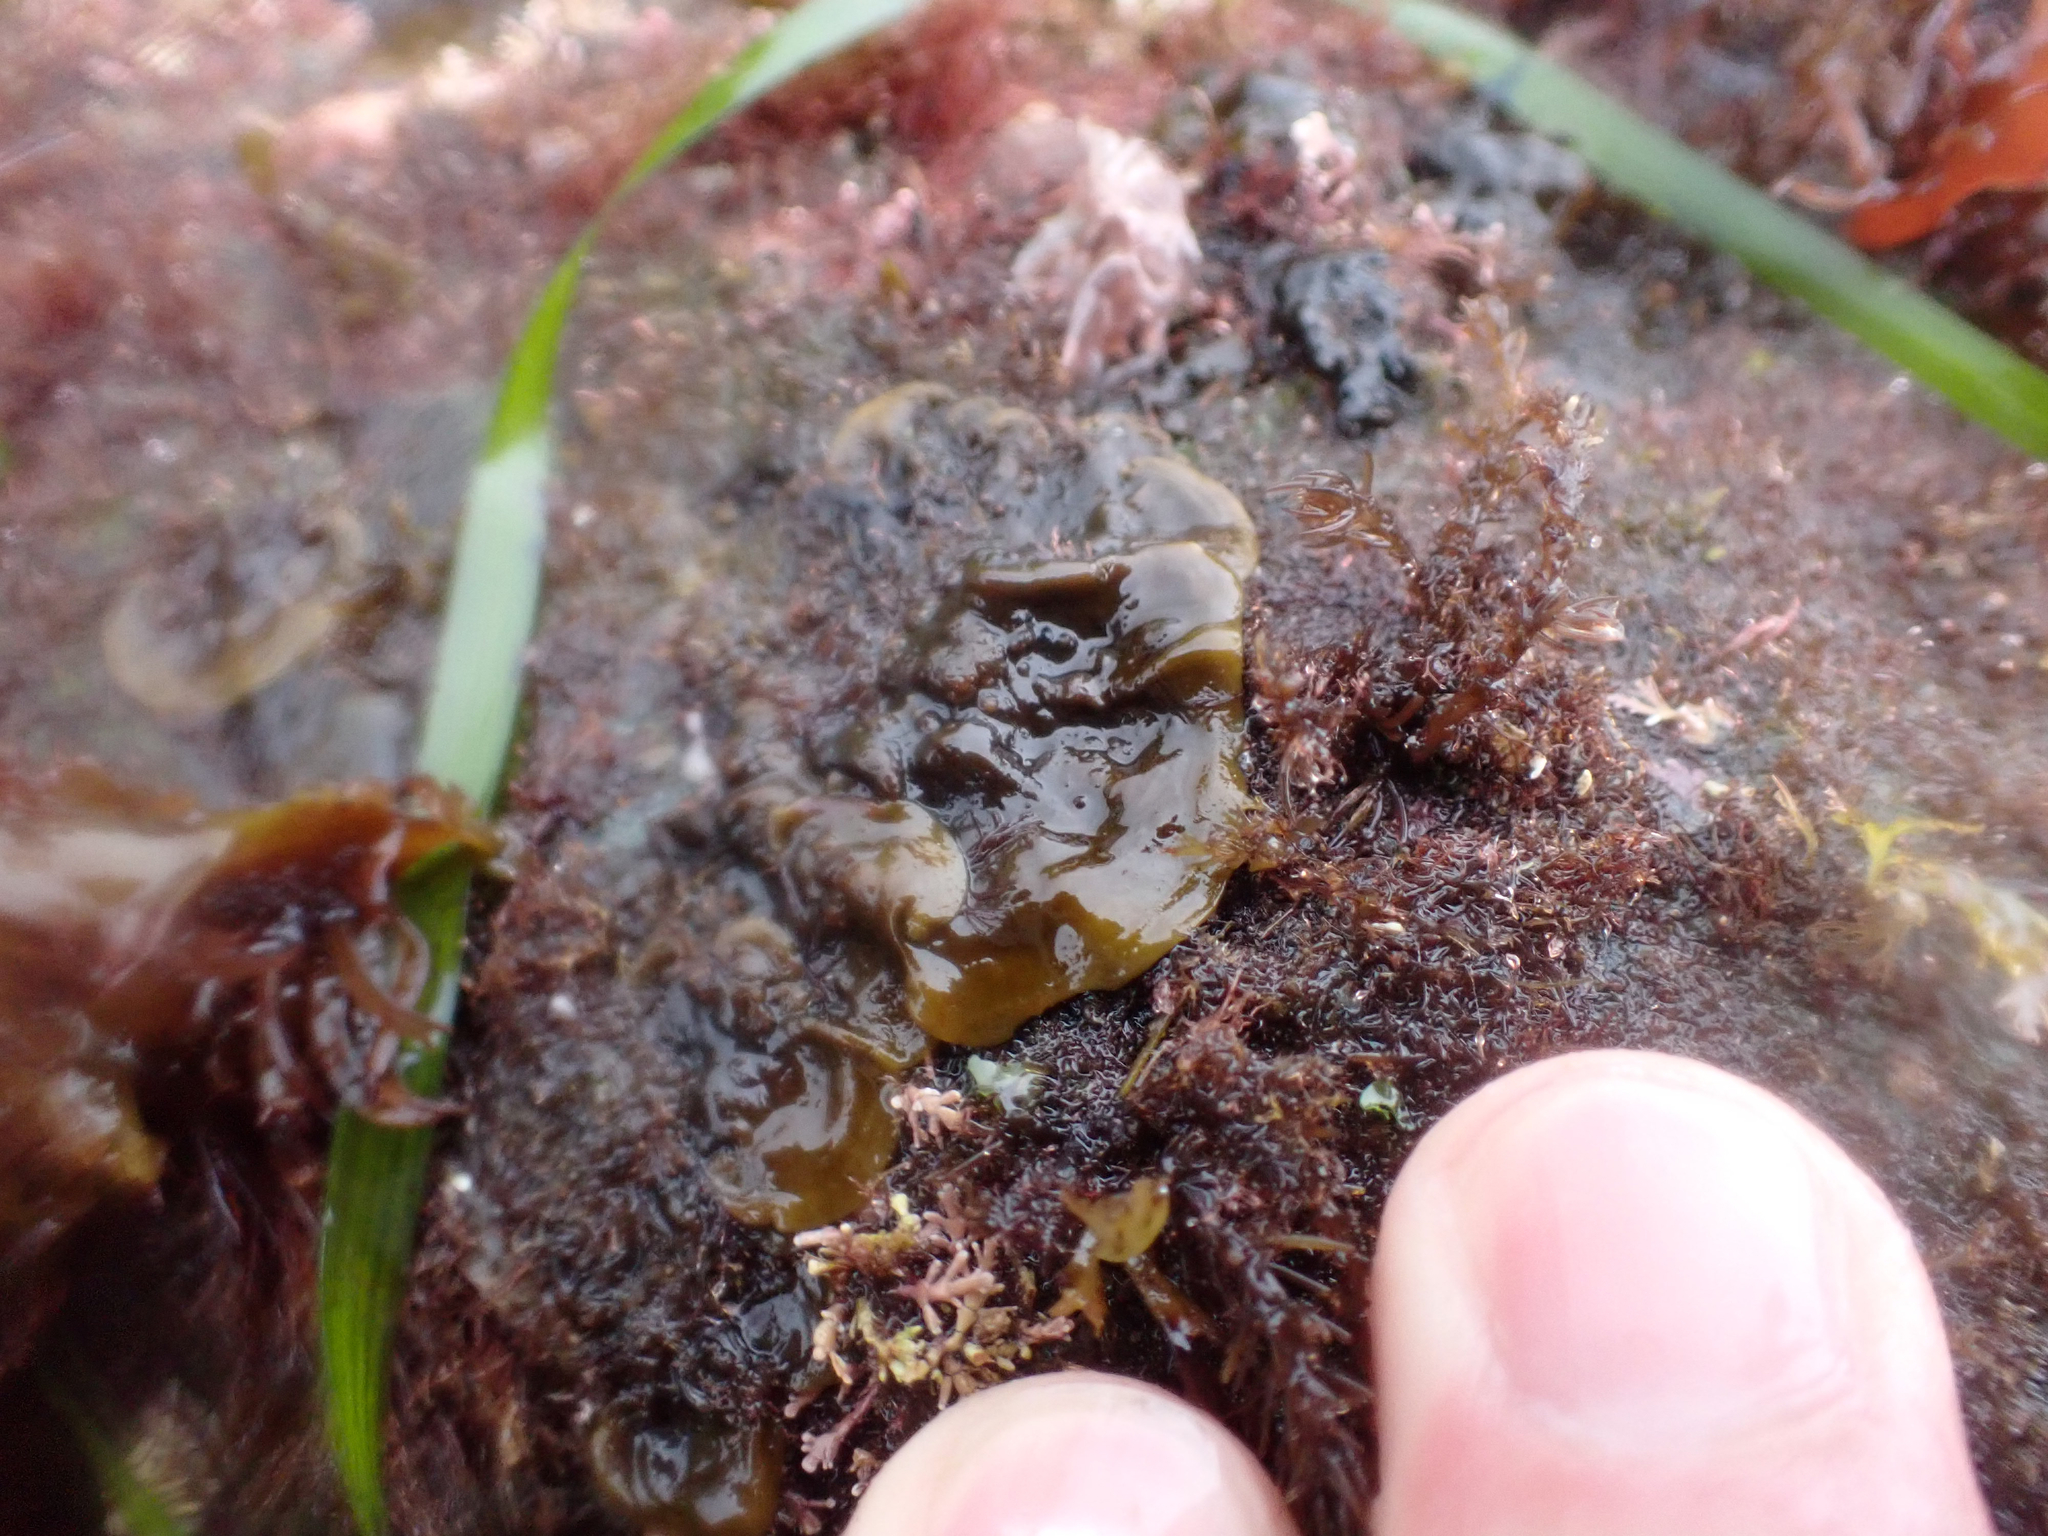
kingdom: Chromista
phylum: Ochrophyta
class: Phaeophyceae
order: Ralfsiales
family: Ralfsiaceae
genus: Ralfsia
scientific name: Ralfsia fungiformis
